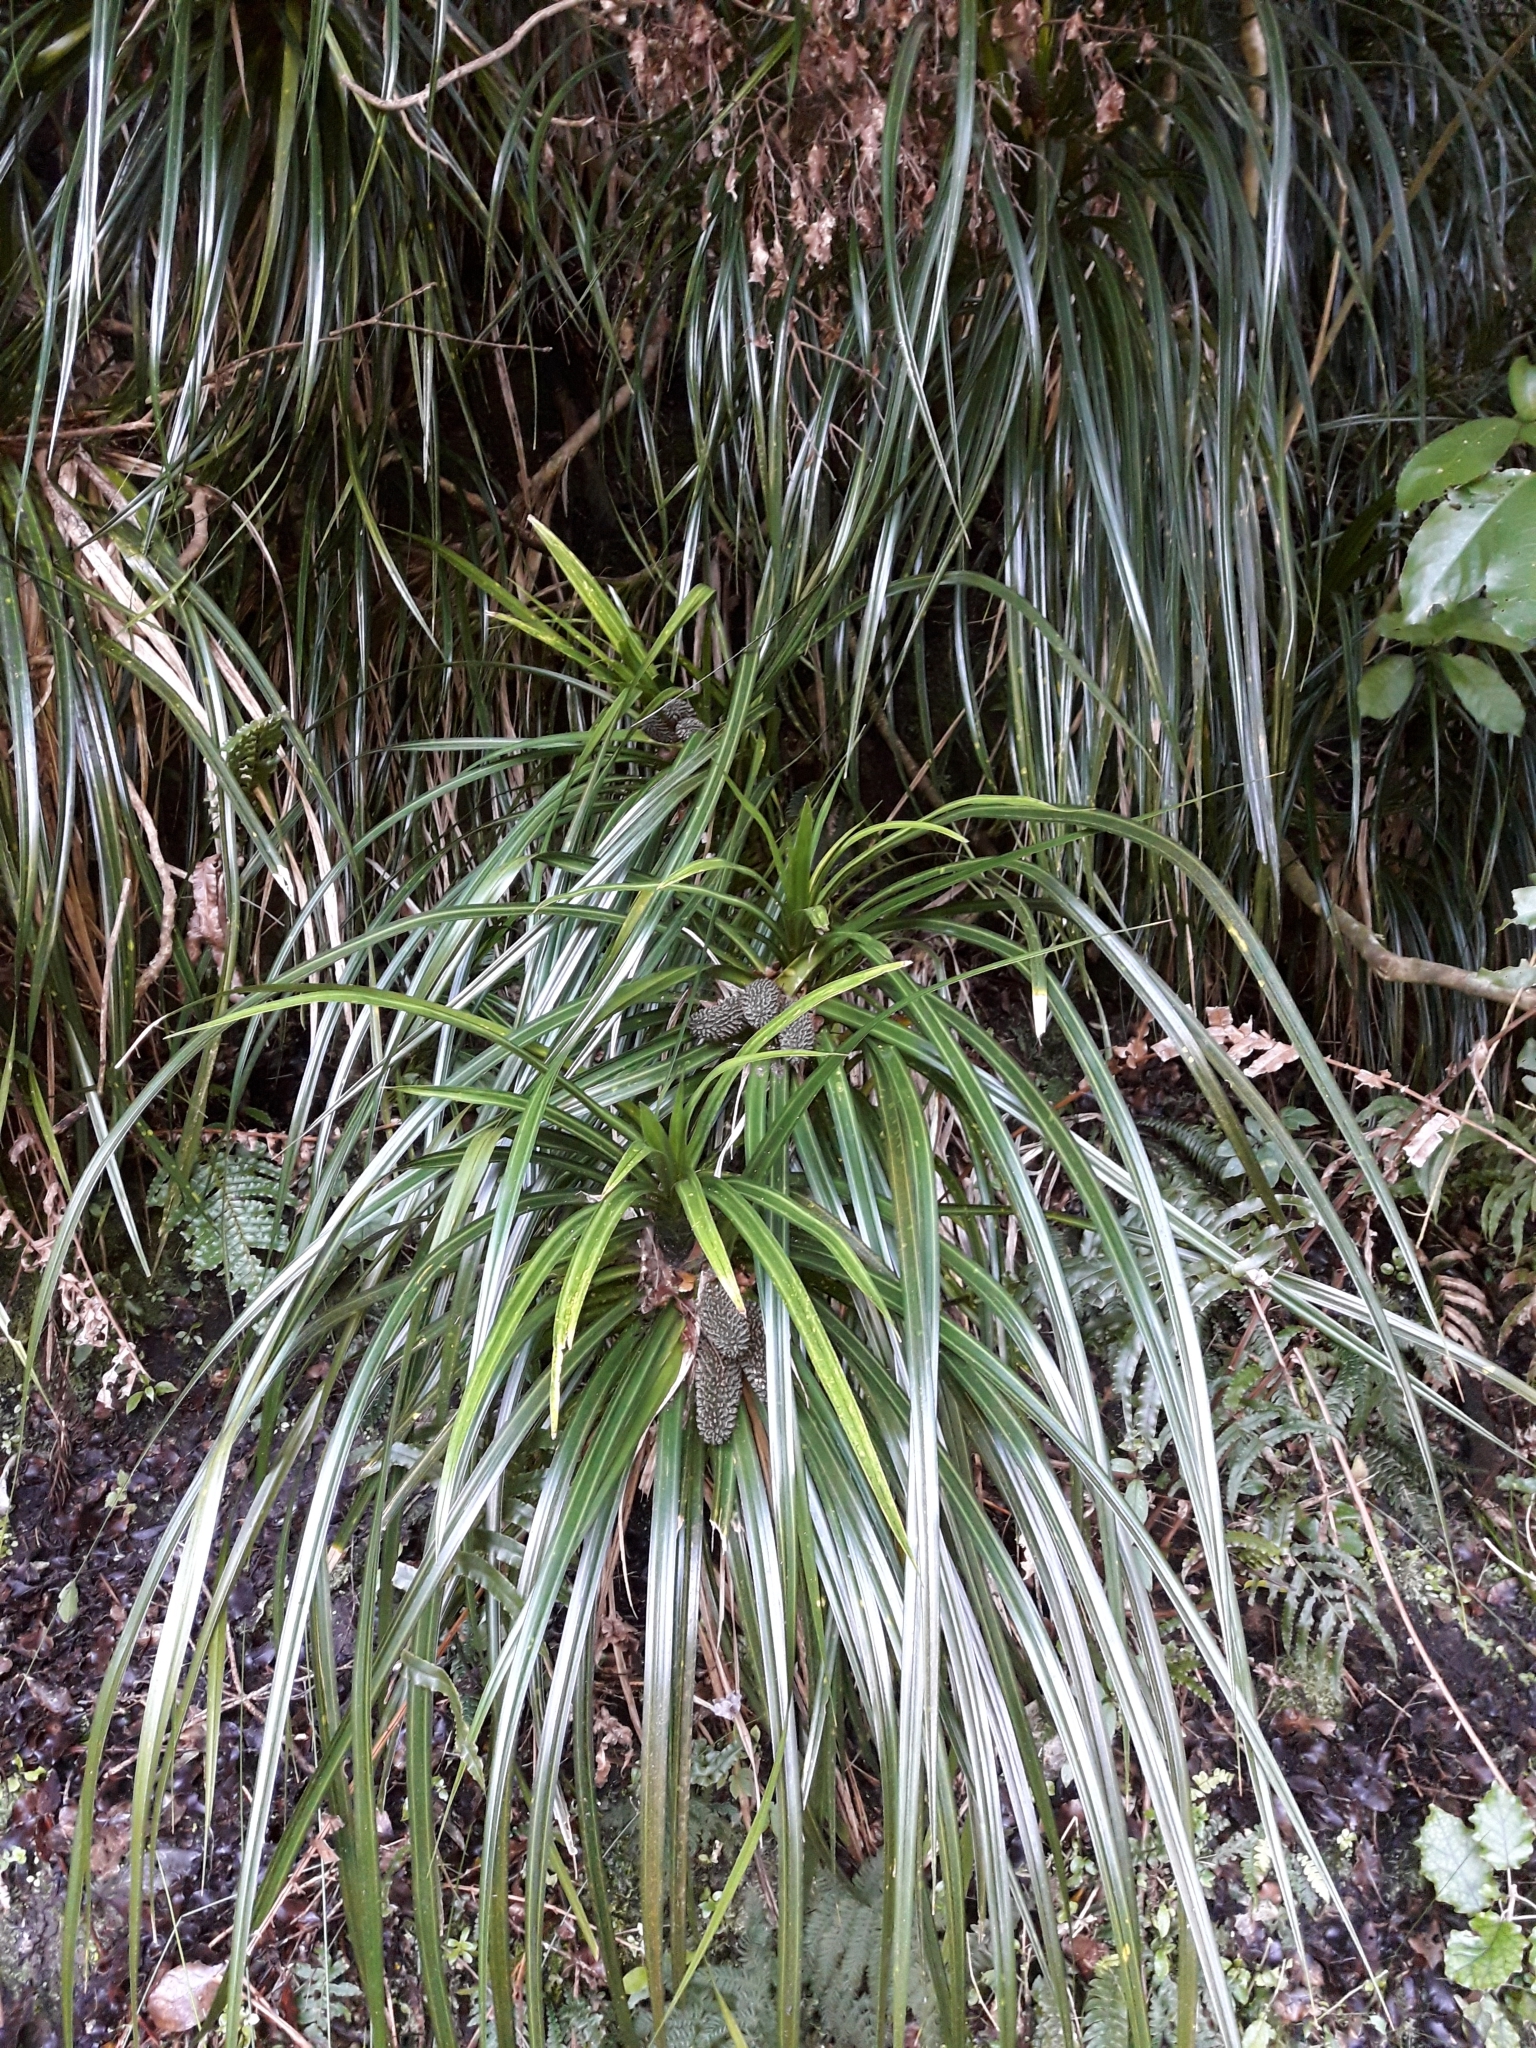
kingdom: Plantae
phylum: Tracheophyta
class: Liliopsida
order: Pandanales
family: Pandanaceae
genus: Freycinetia
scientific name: Freycinetia banksii
